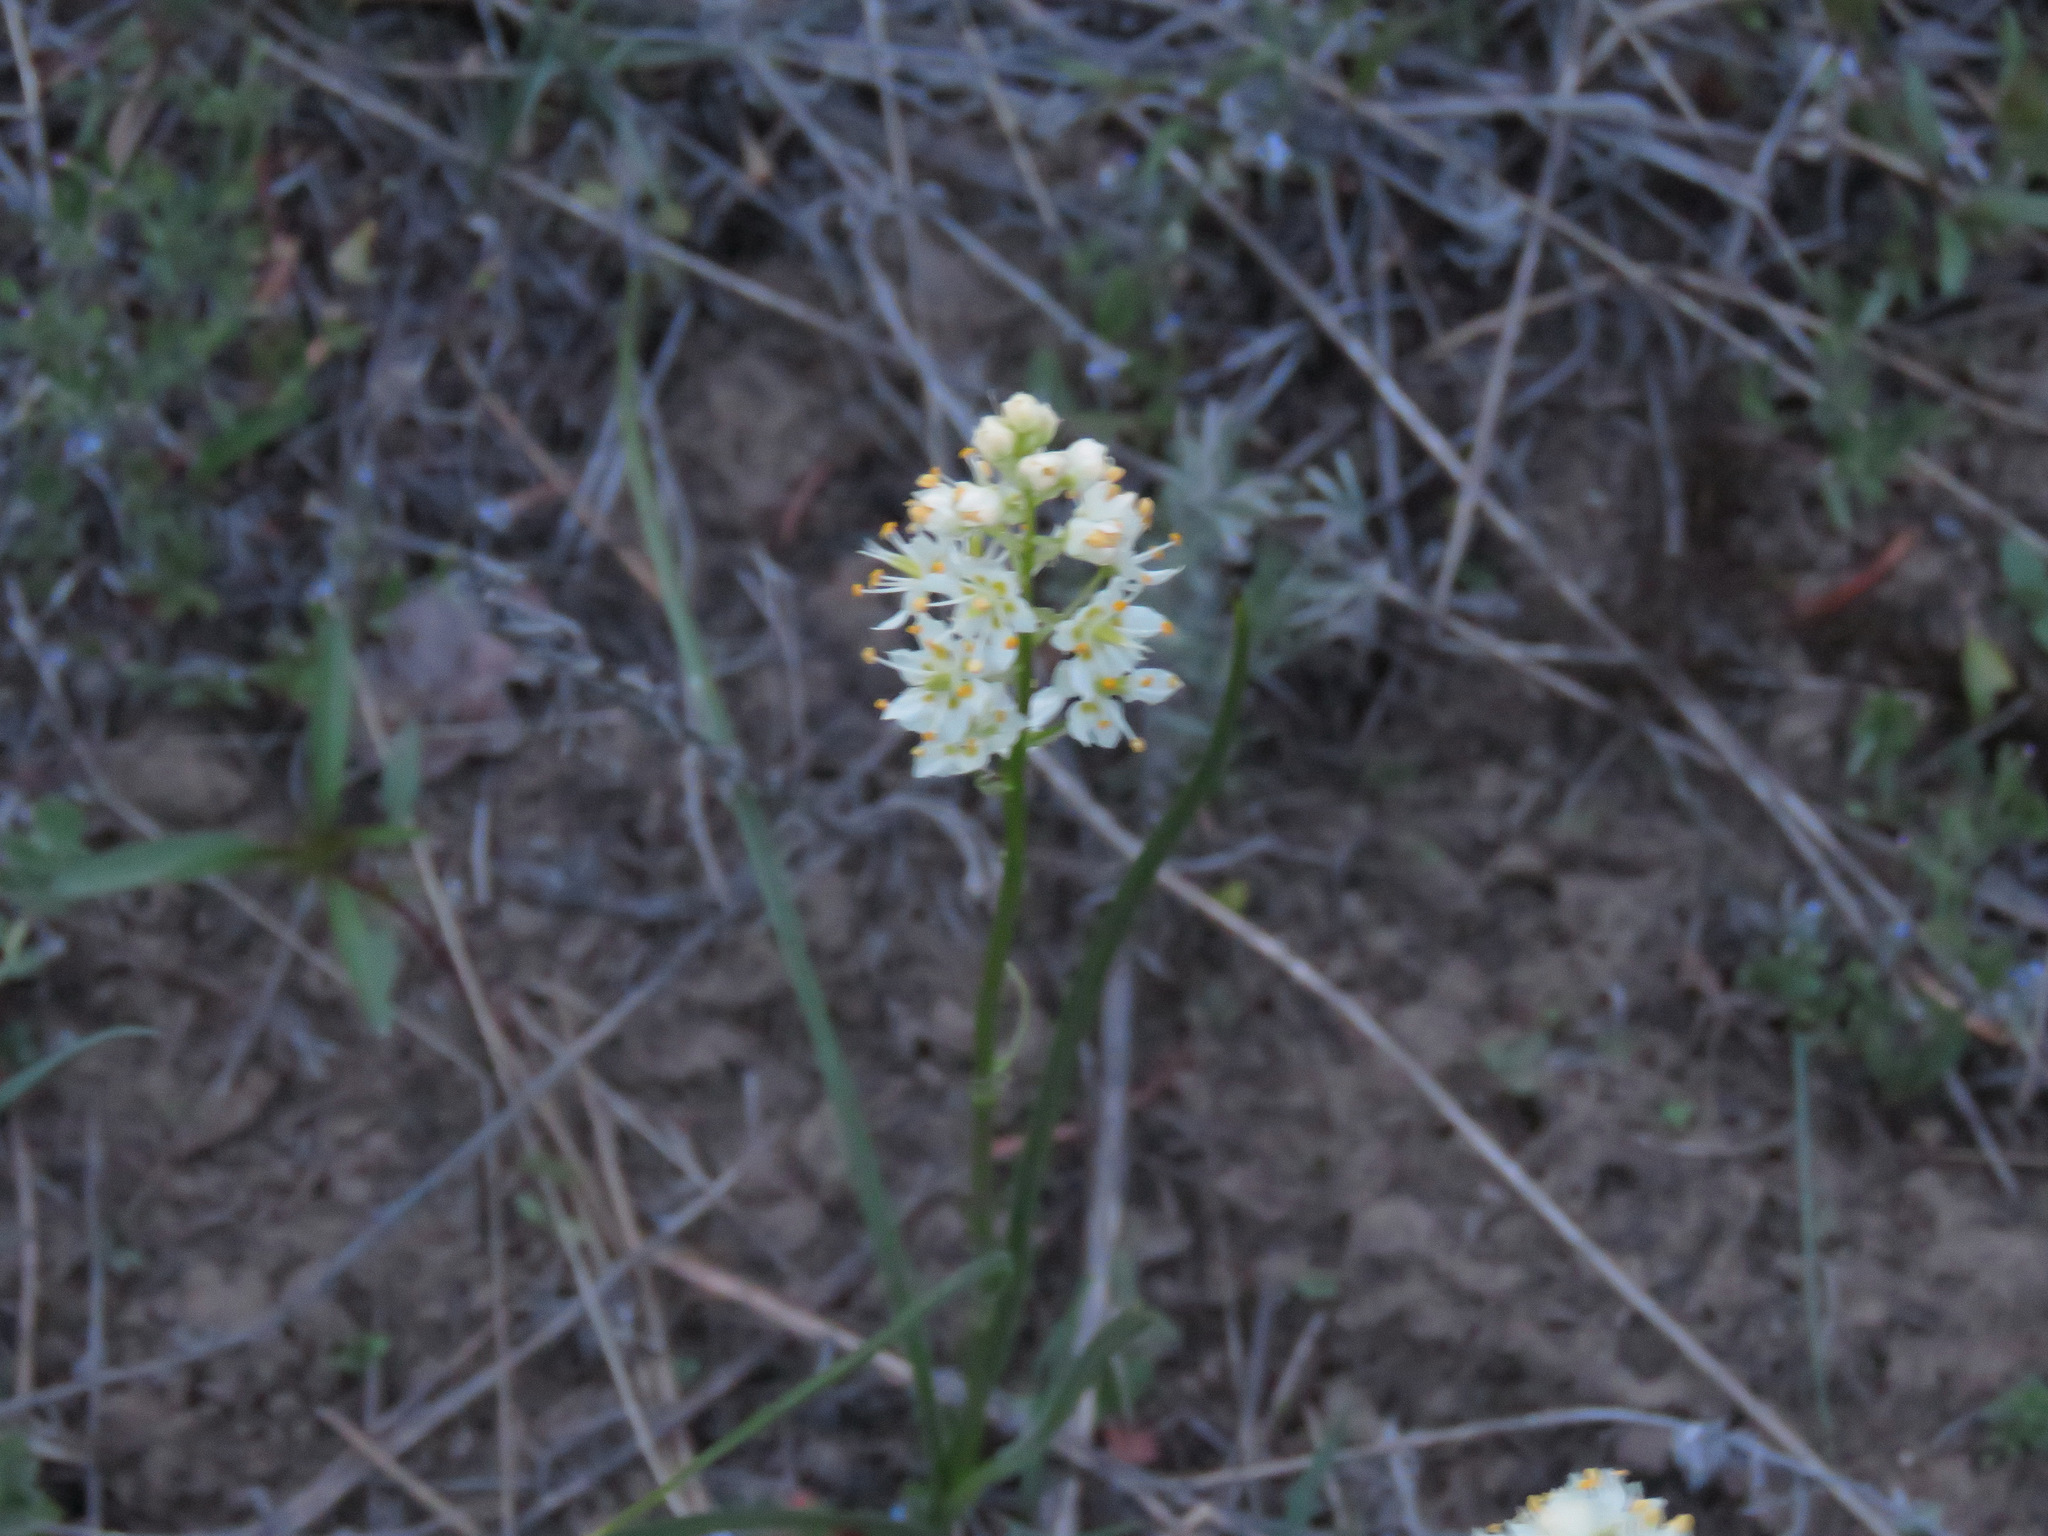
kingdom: Plantae
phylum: Tracheophyta
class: Liliopsida
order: Liliales
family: Melanthiaceae
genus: Toxicoscordion
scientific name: Toxicoscordion venenosum
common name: Meadow death camas
